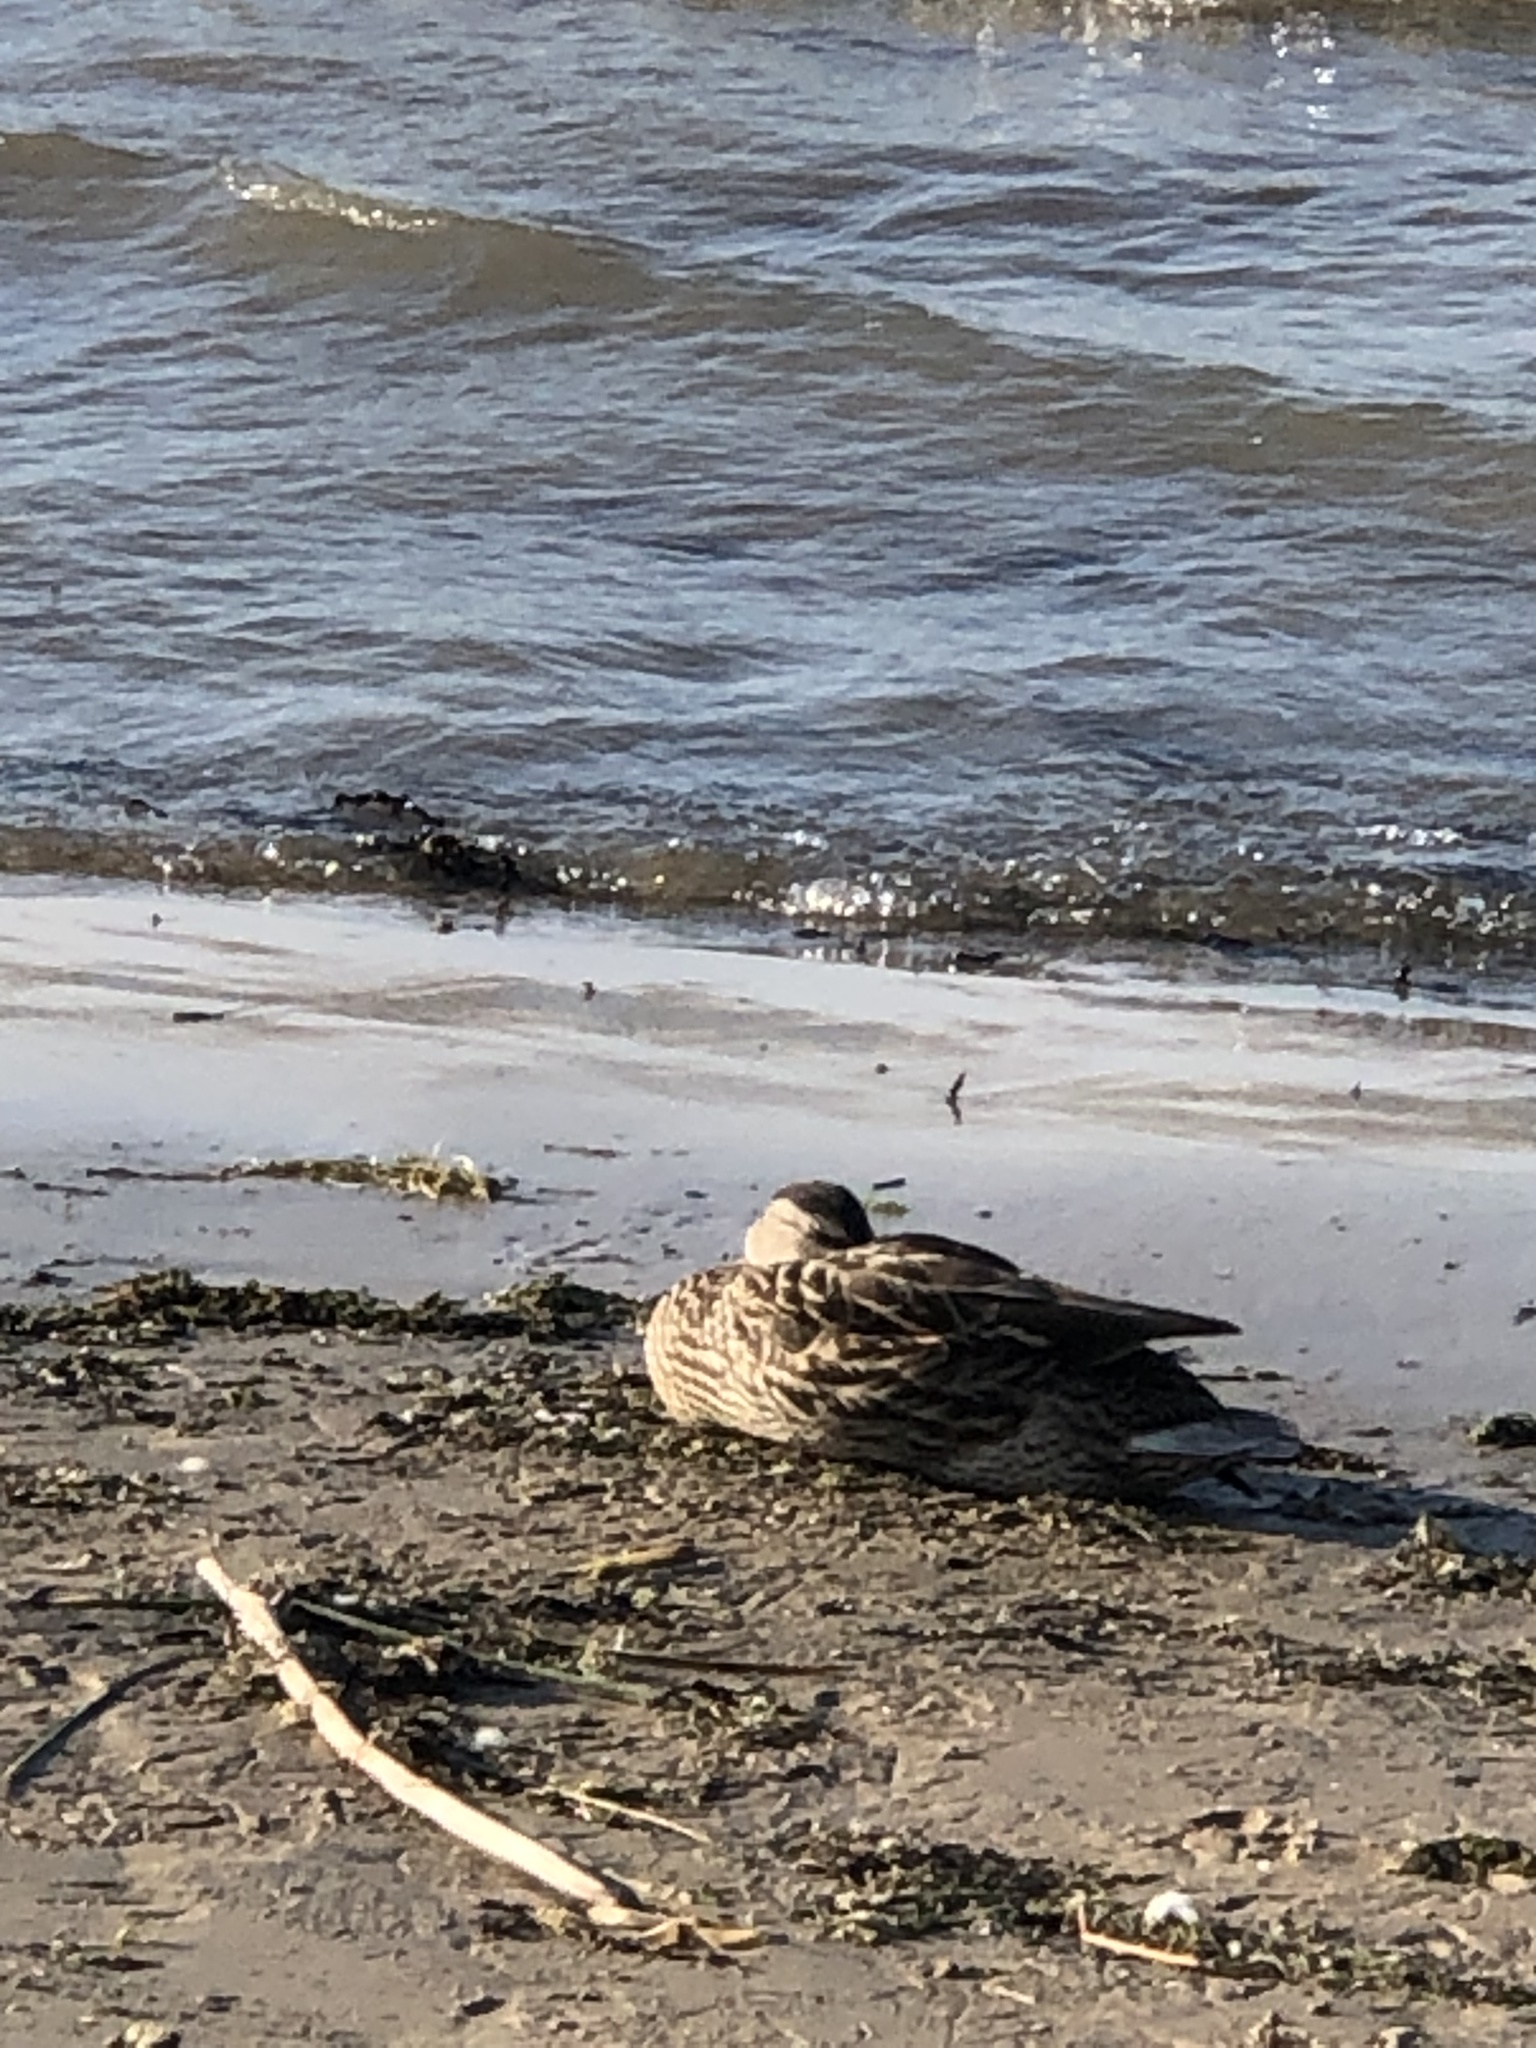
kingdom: Animalia
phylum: Chordata
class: Aves
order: Anseriformes
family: Anatidae
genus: Anas
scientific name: Anas platyrhynchos
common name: Mallard
